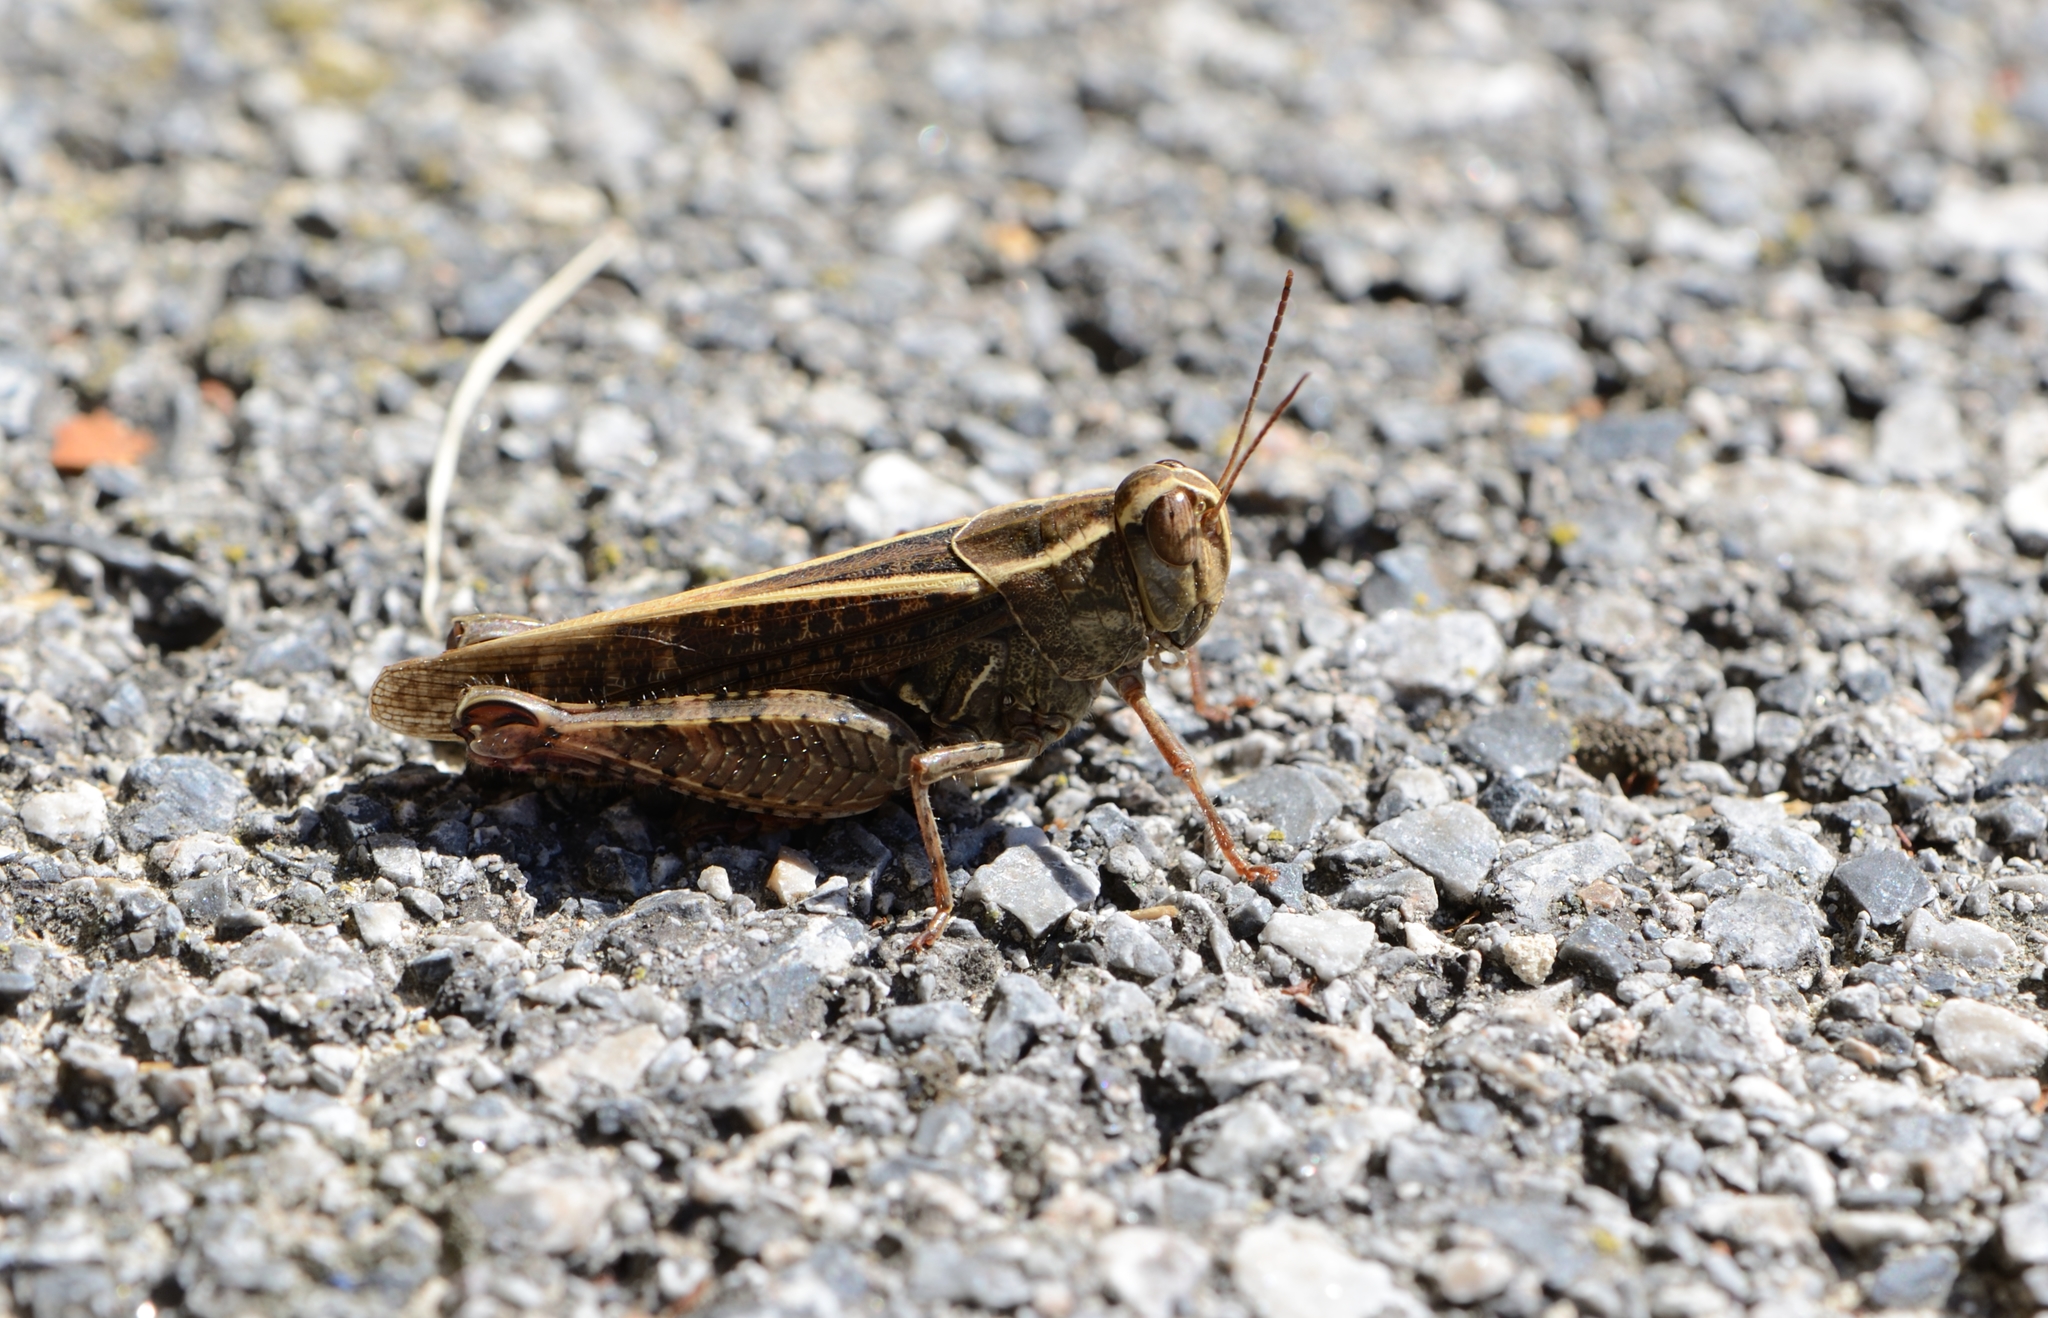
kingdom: Animalia
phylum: Arthropoda
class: Insecta
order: Orthoptera
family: Acrididae
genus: Calliptamus
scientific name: Calliptamus italicus
